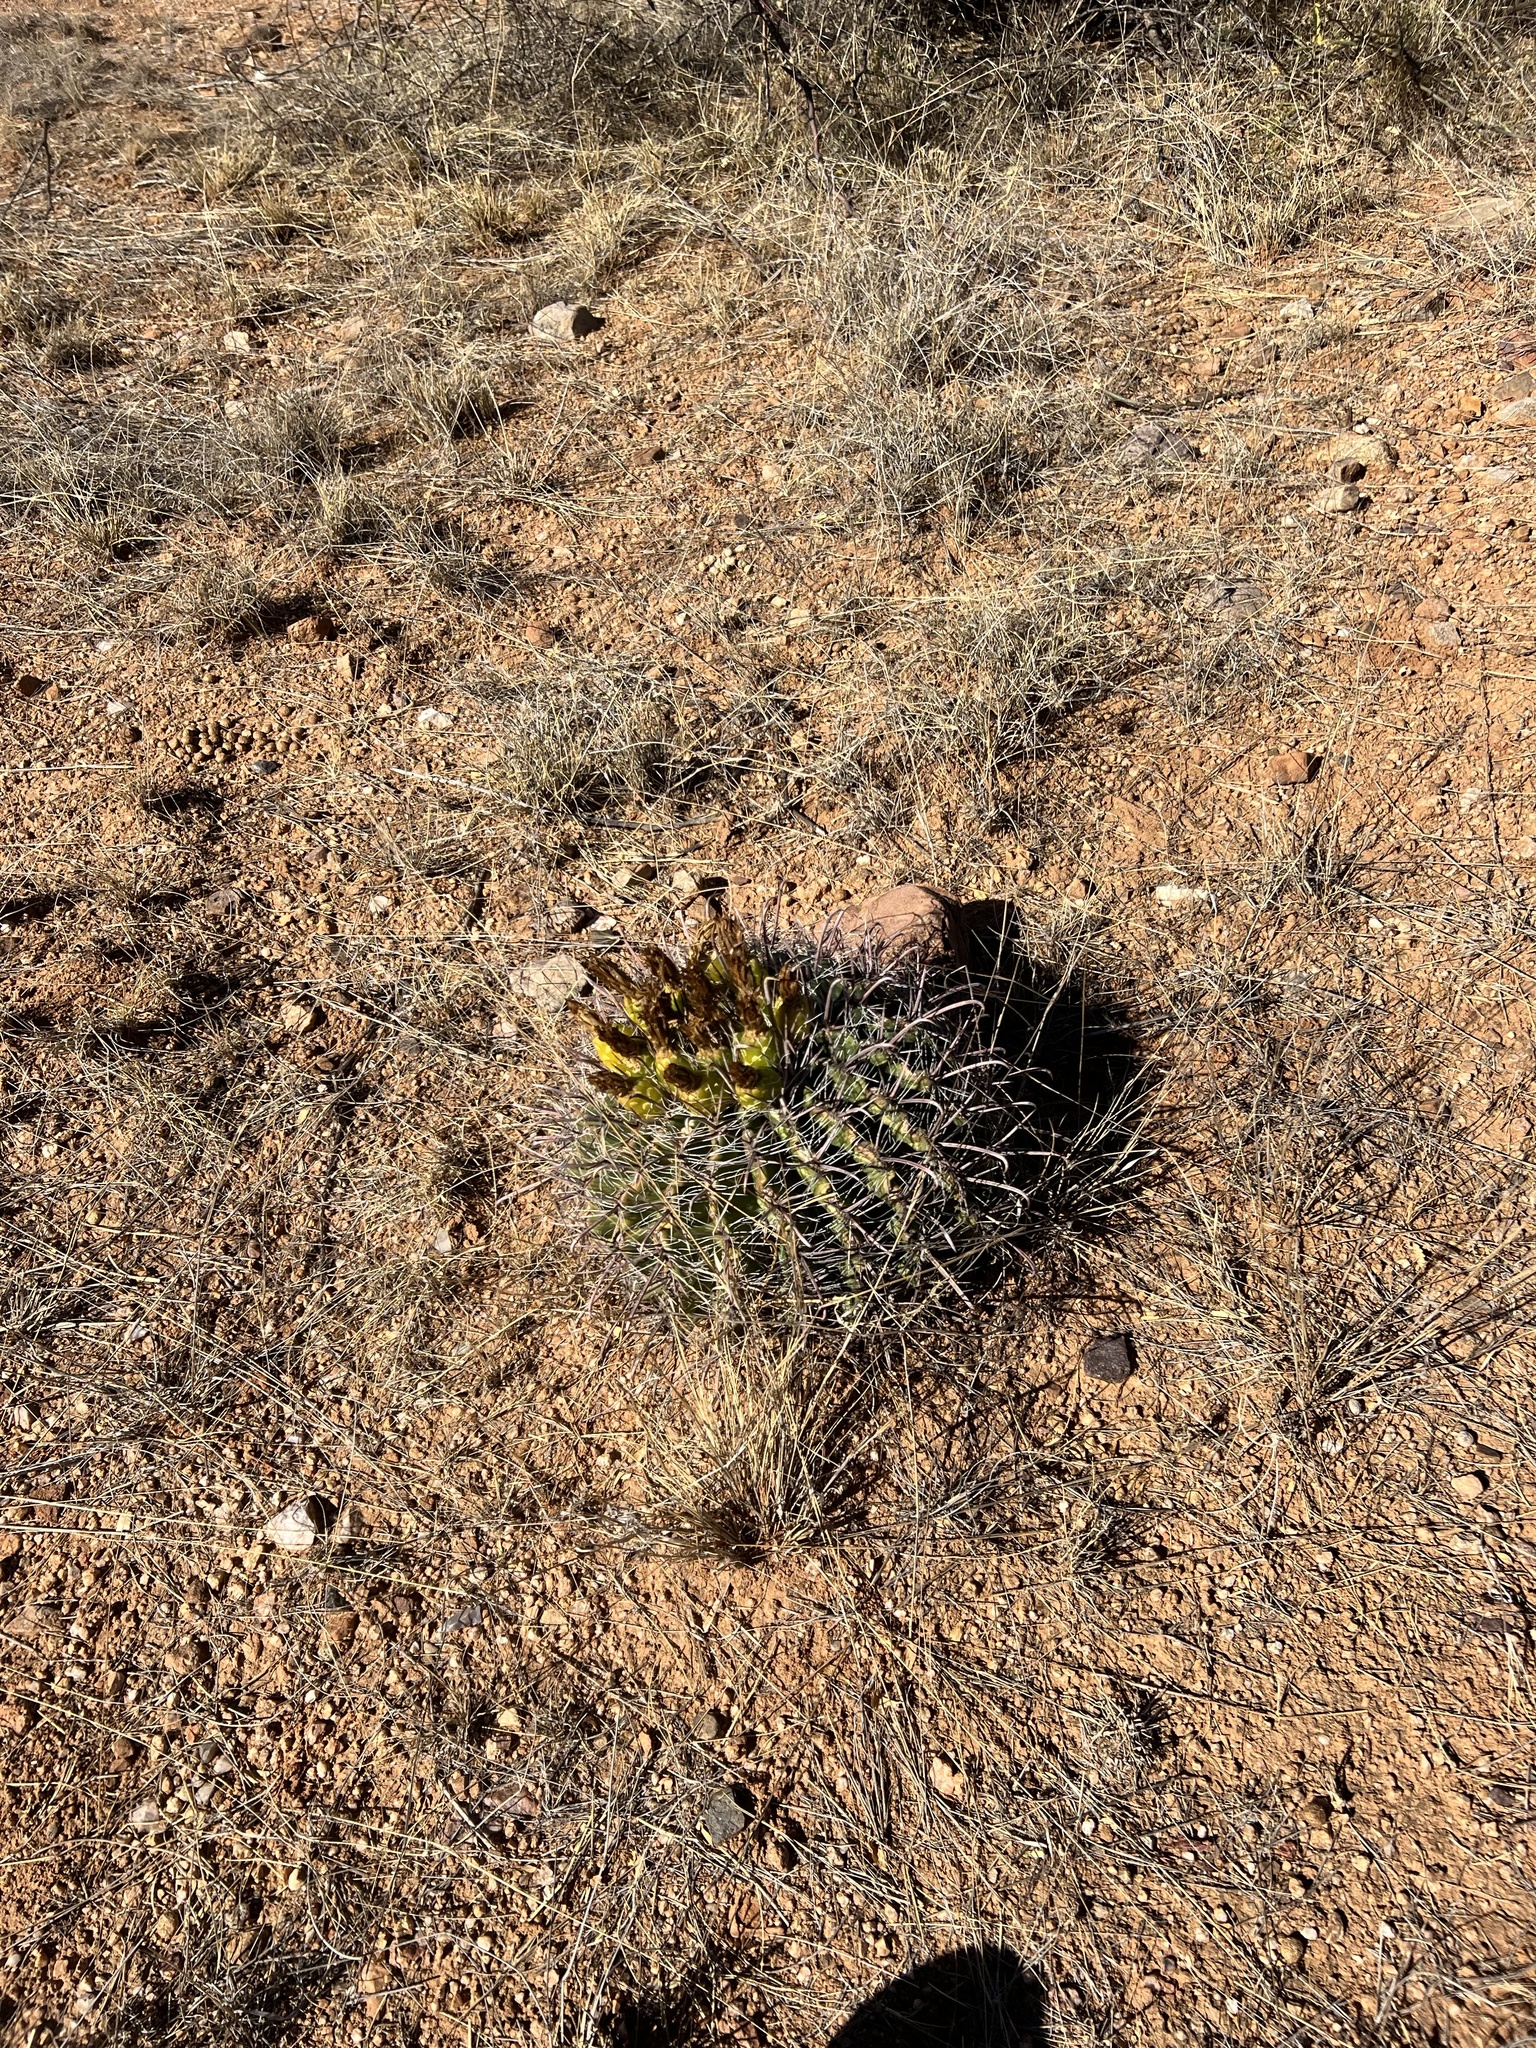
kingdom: Plantae
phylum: Tracheophyta
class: Magnoliopsida
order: Caryophyllales
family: Cactaceae
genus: Ferocactus
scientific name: Ferocactus wislizeni
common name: Candy barrel cactus
